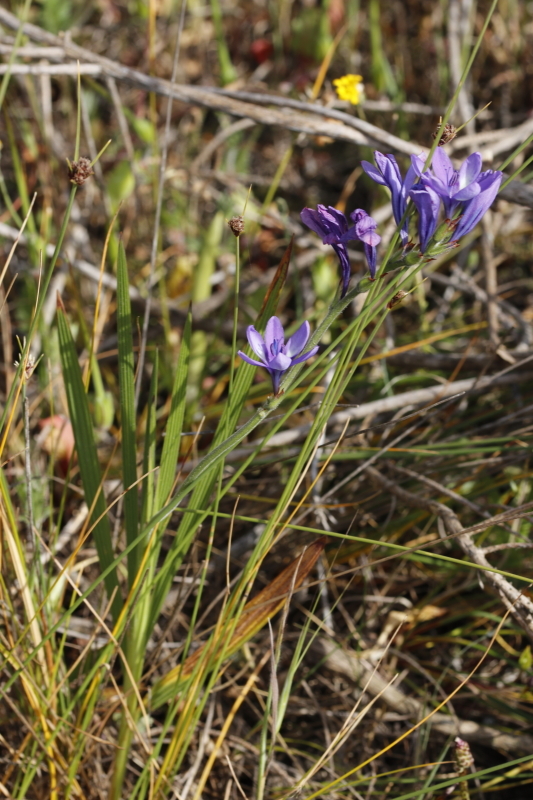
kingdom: Plantae
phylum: Tracheophyta
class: Liliopsida
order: Asparagales
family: Iridaceae
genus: Babiana
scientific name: Babiana angustifolia
